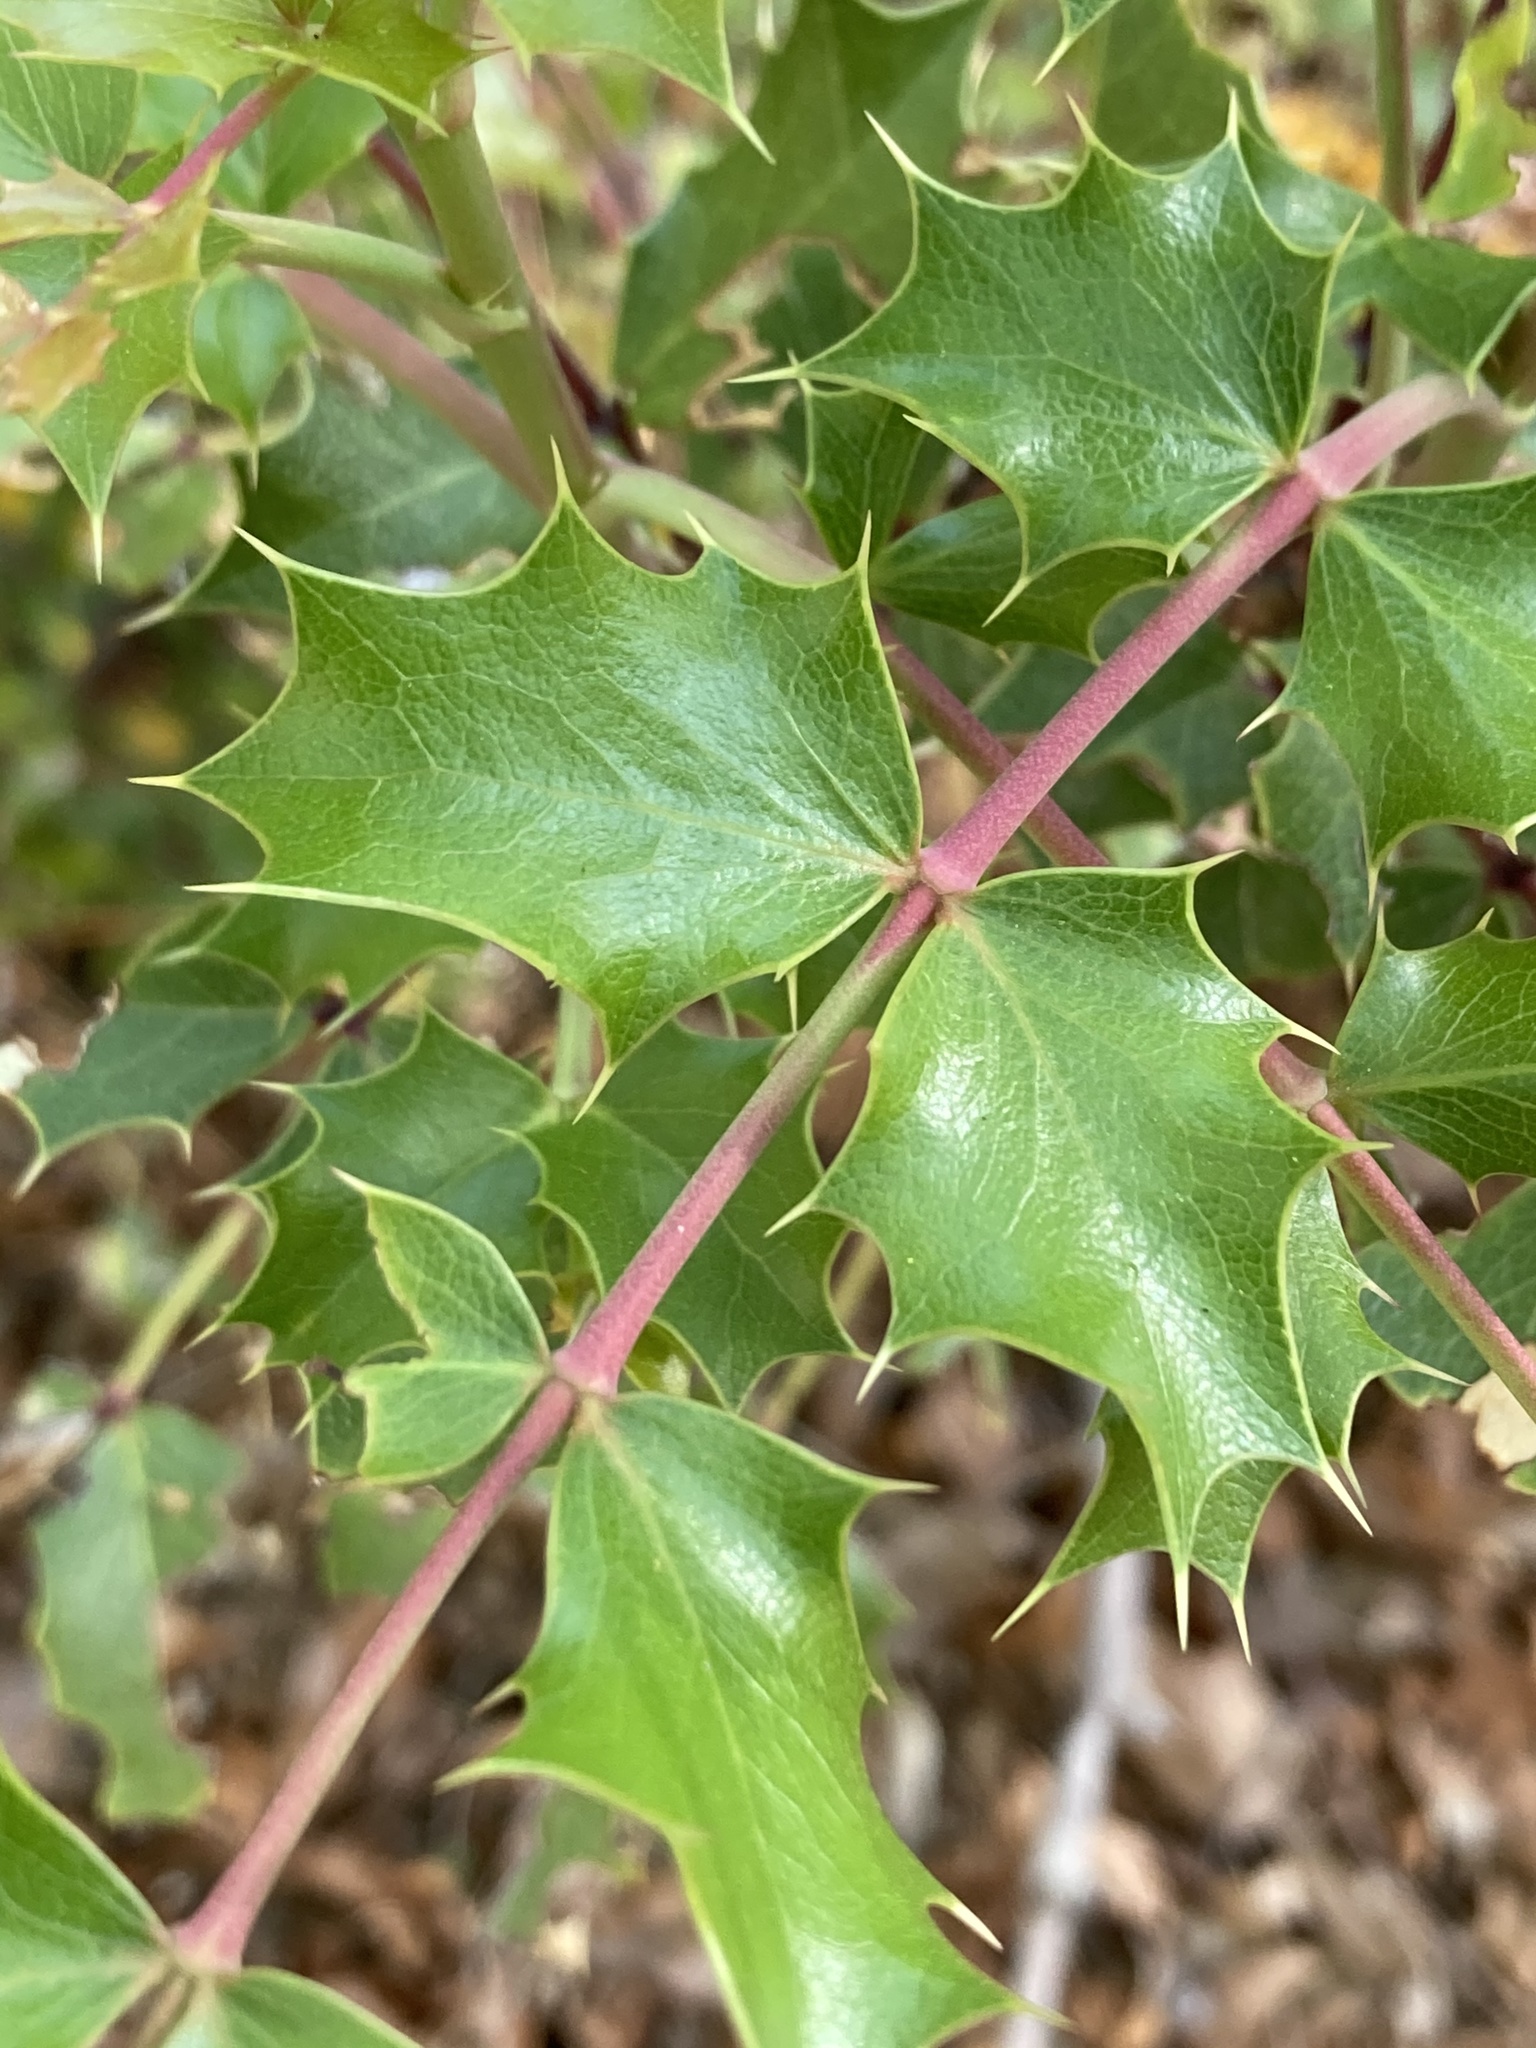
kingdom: Plantae
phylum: Tracheophyta
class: Magnoliopsida
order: Ranunculales
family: Berberidaceae
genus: Mahonia
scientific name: Mahonia wilcoxii
